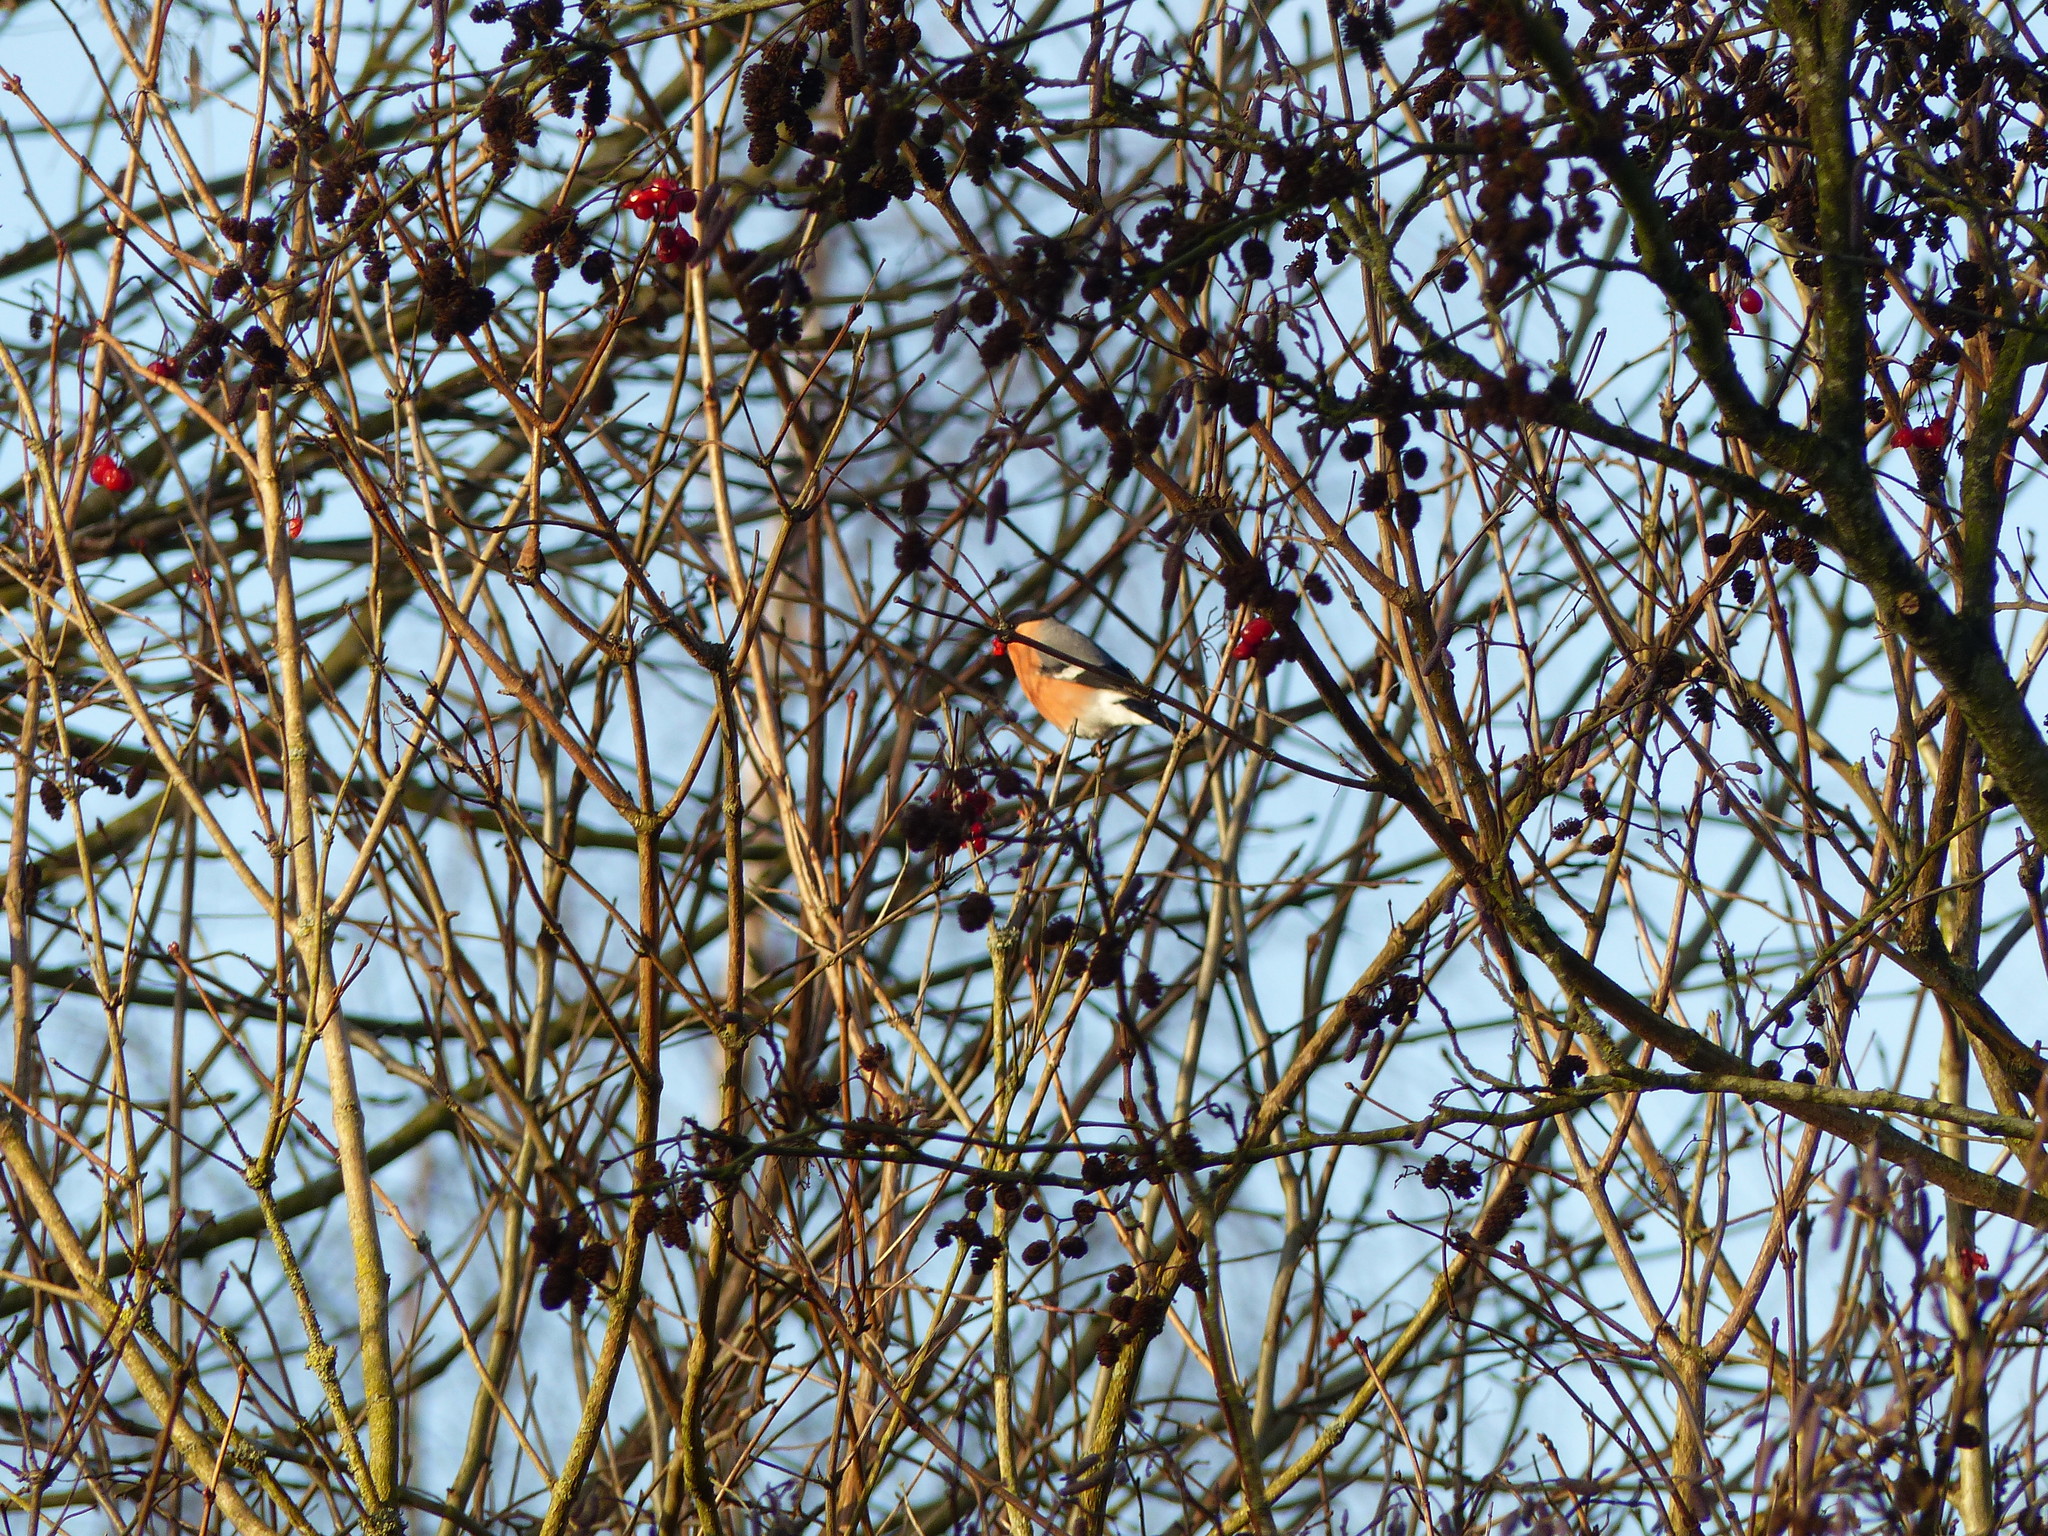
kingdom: Animalia
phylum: Chordata
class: Aves
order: Passeriformes
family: Fringillidae
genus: Pyrrhula
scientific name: Pyrrhula pyrrhula
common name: Eurasian bullfinch
